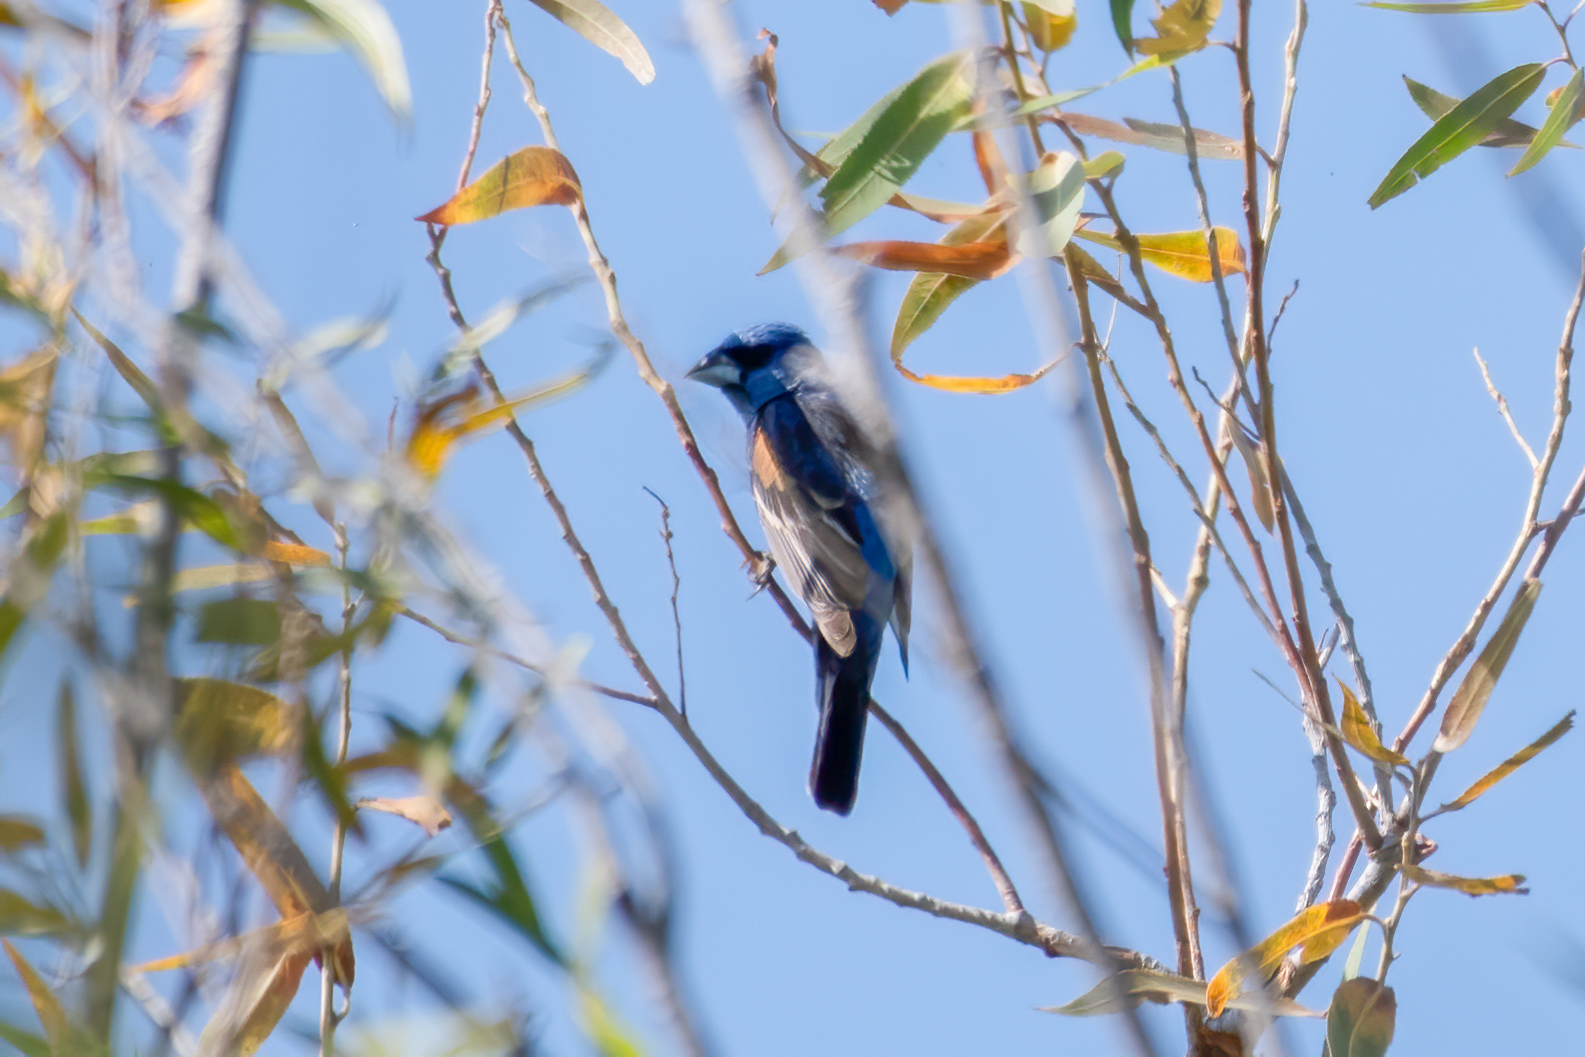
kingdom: Animalia
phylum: Chordata
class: Aves
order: Passeriformes
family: Cardinalidae
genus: Passerina
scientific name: Passerina caerulea
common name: Blue grosbeak
